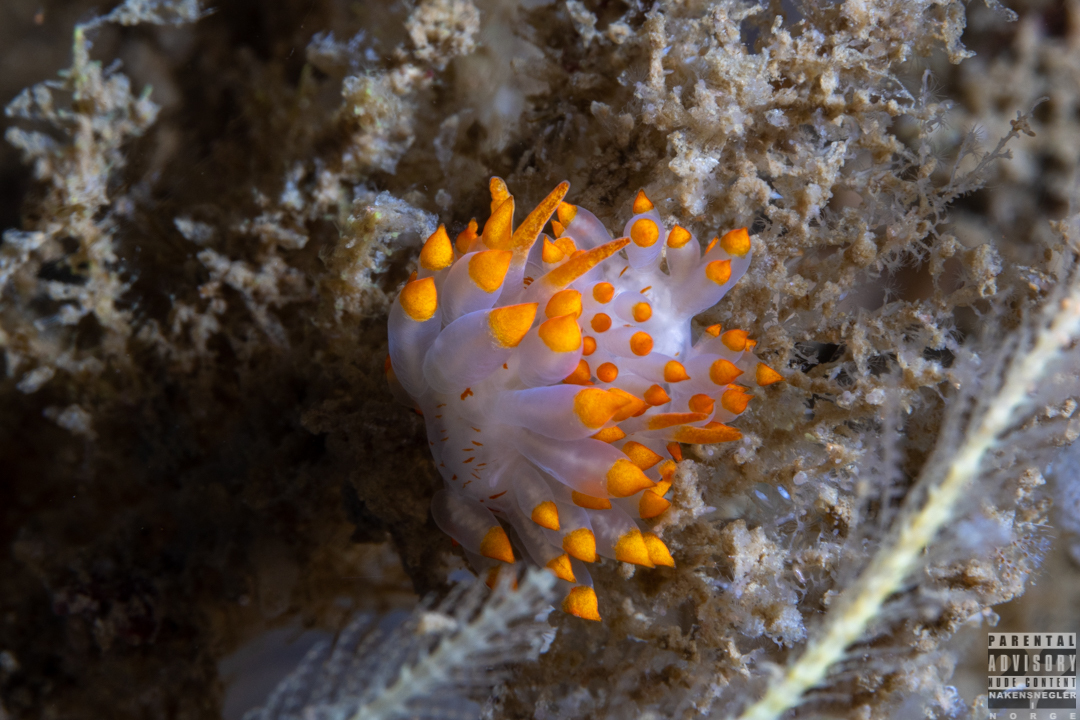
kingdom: Animalia
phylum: Mollusca
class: Gastropoda
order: Nudibranchia
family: Eubranchidae
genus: Amphorina
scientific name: Amphorina farrani
